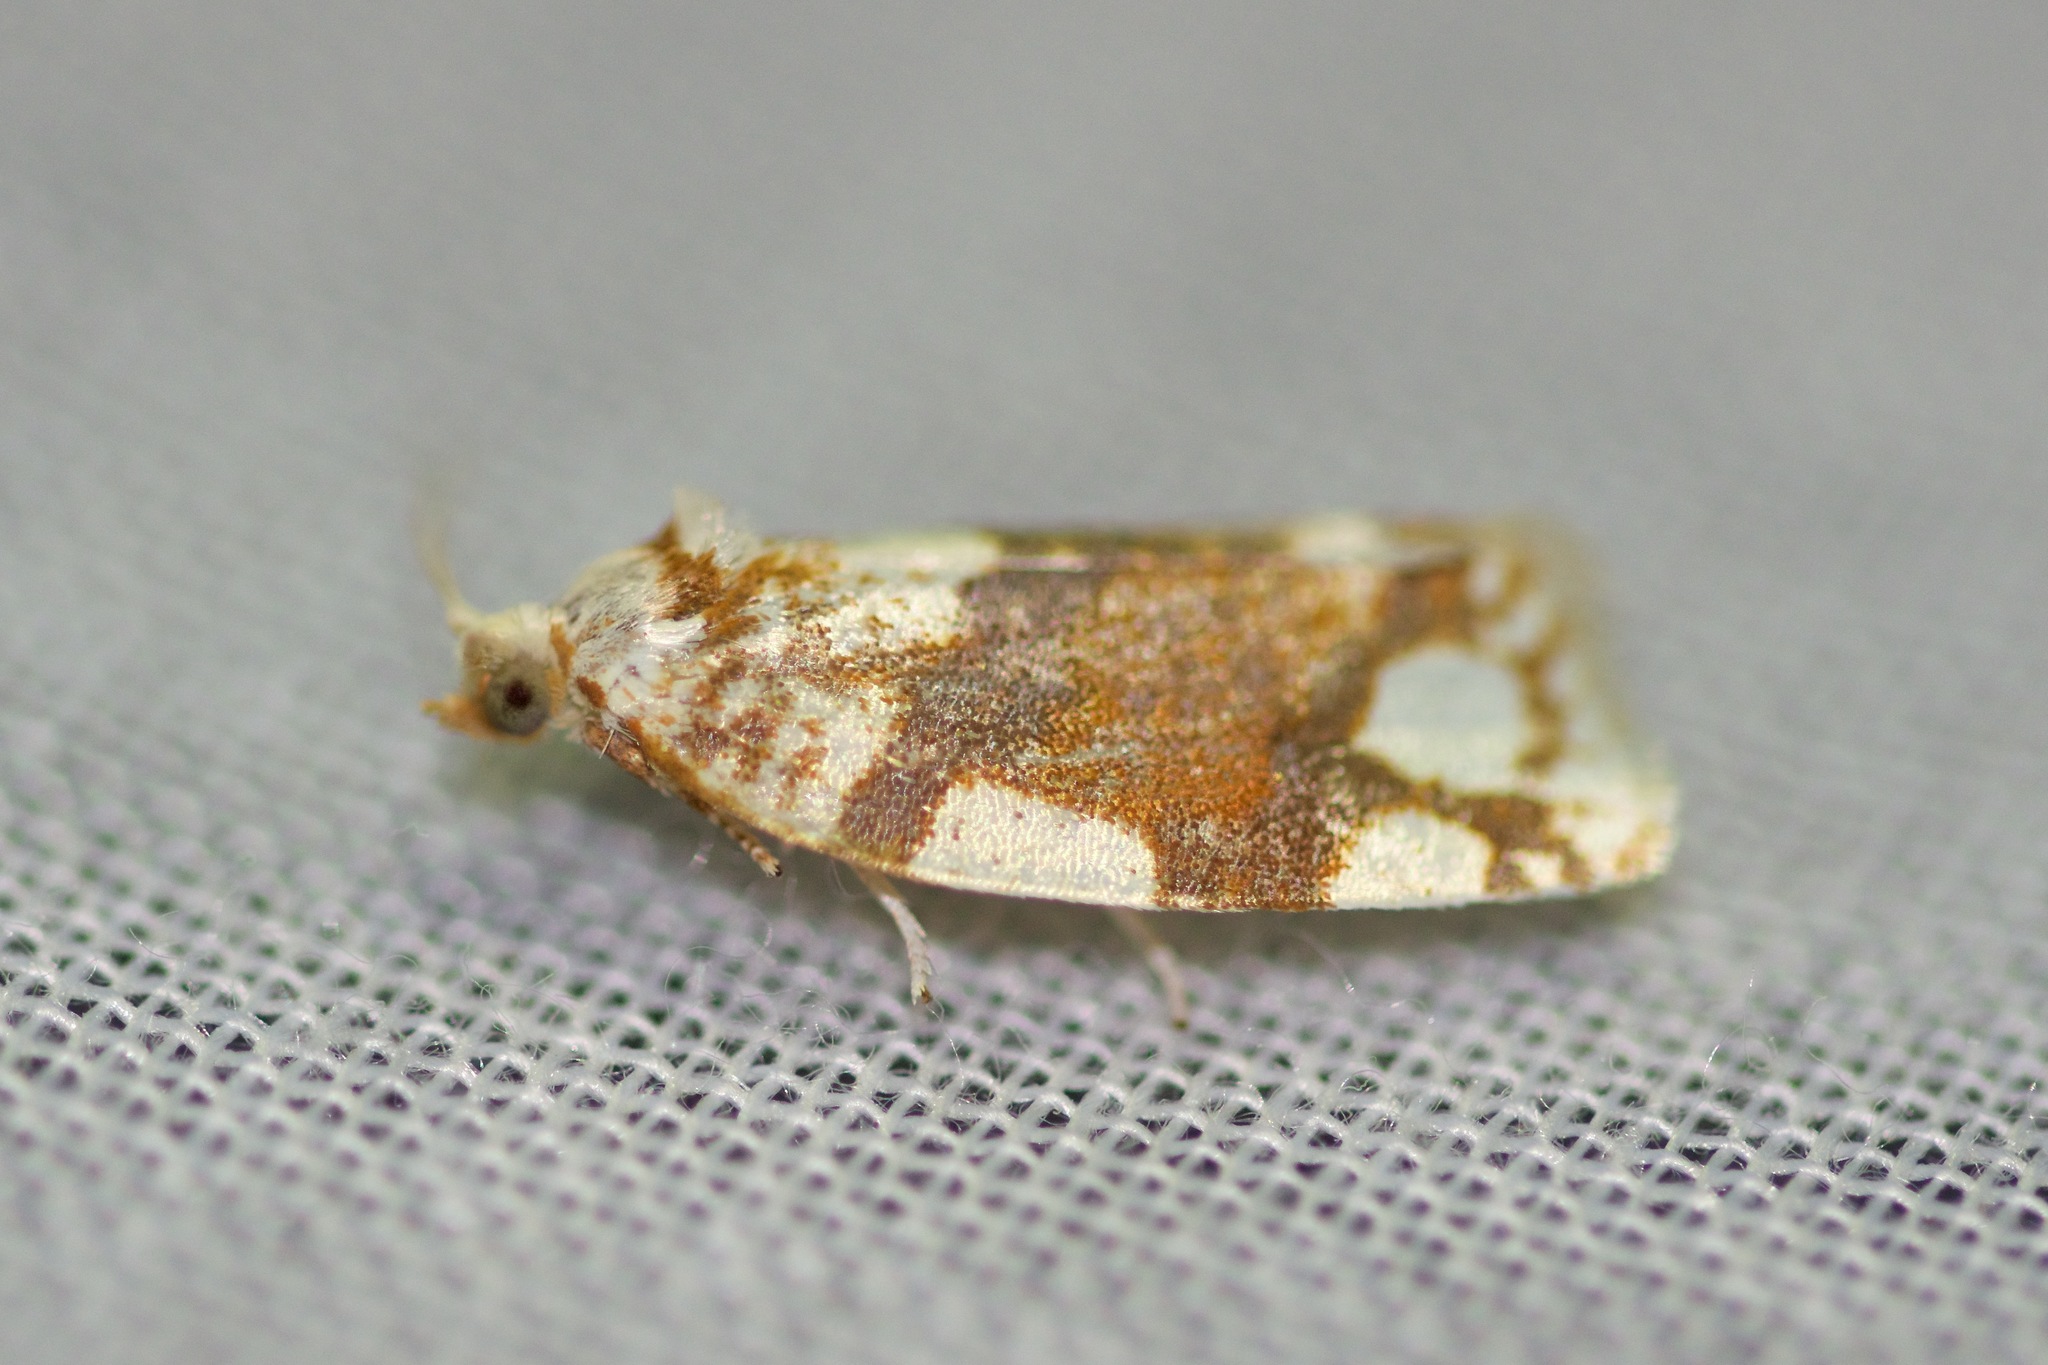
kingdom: Animalia
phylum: Arthropoda
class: Insecta
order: Lepidoptera
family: Tortricidae
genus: Argyrotaenia
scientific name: Argyrotaenia alisellana
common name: White-spotted leafroller moth
